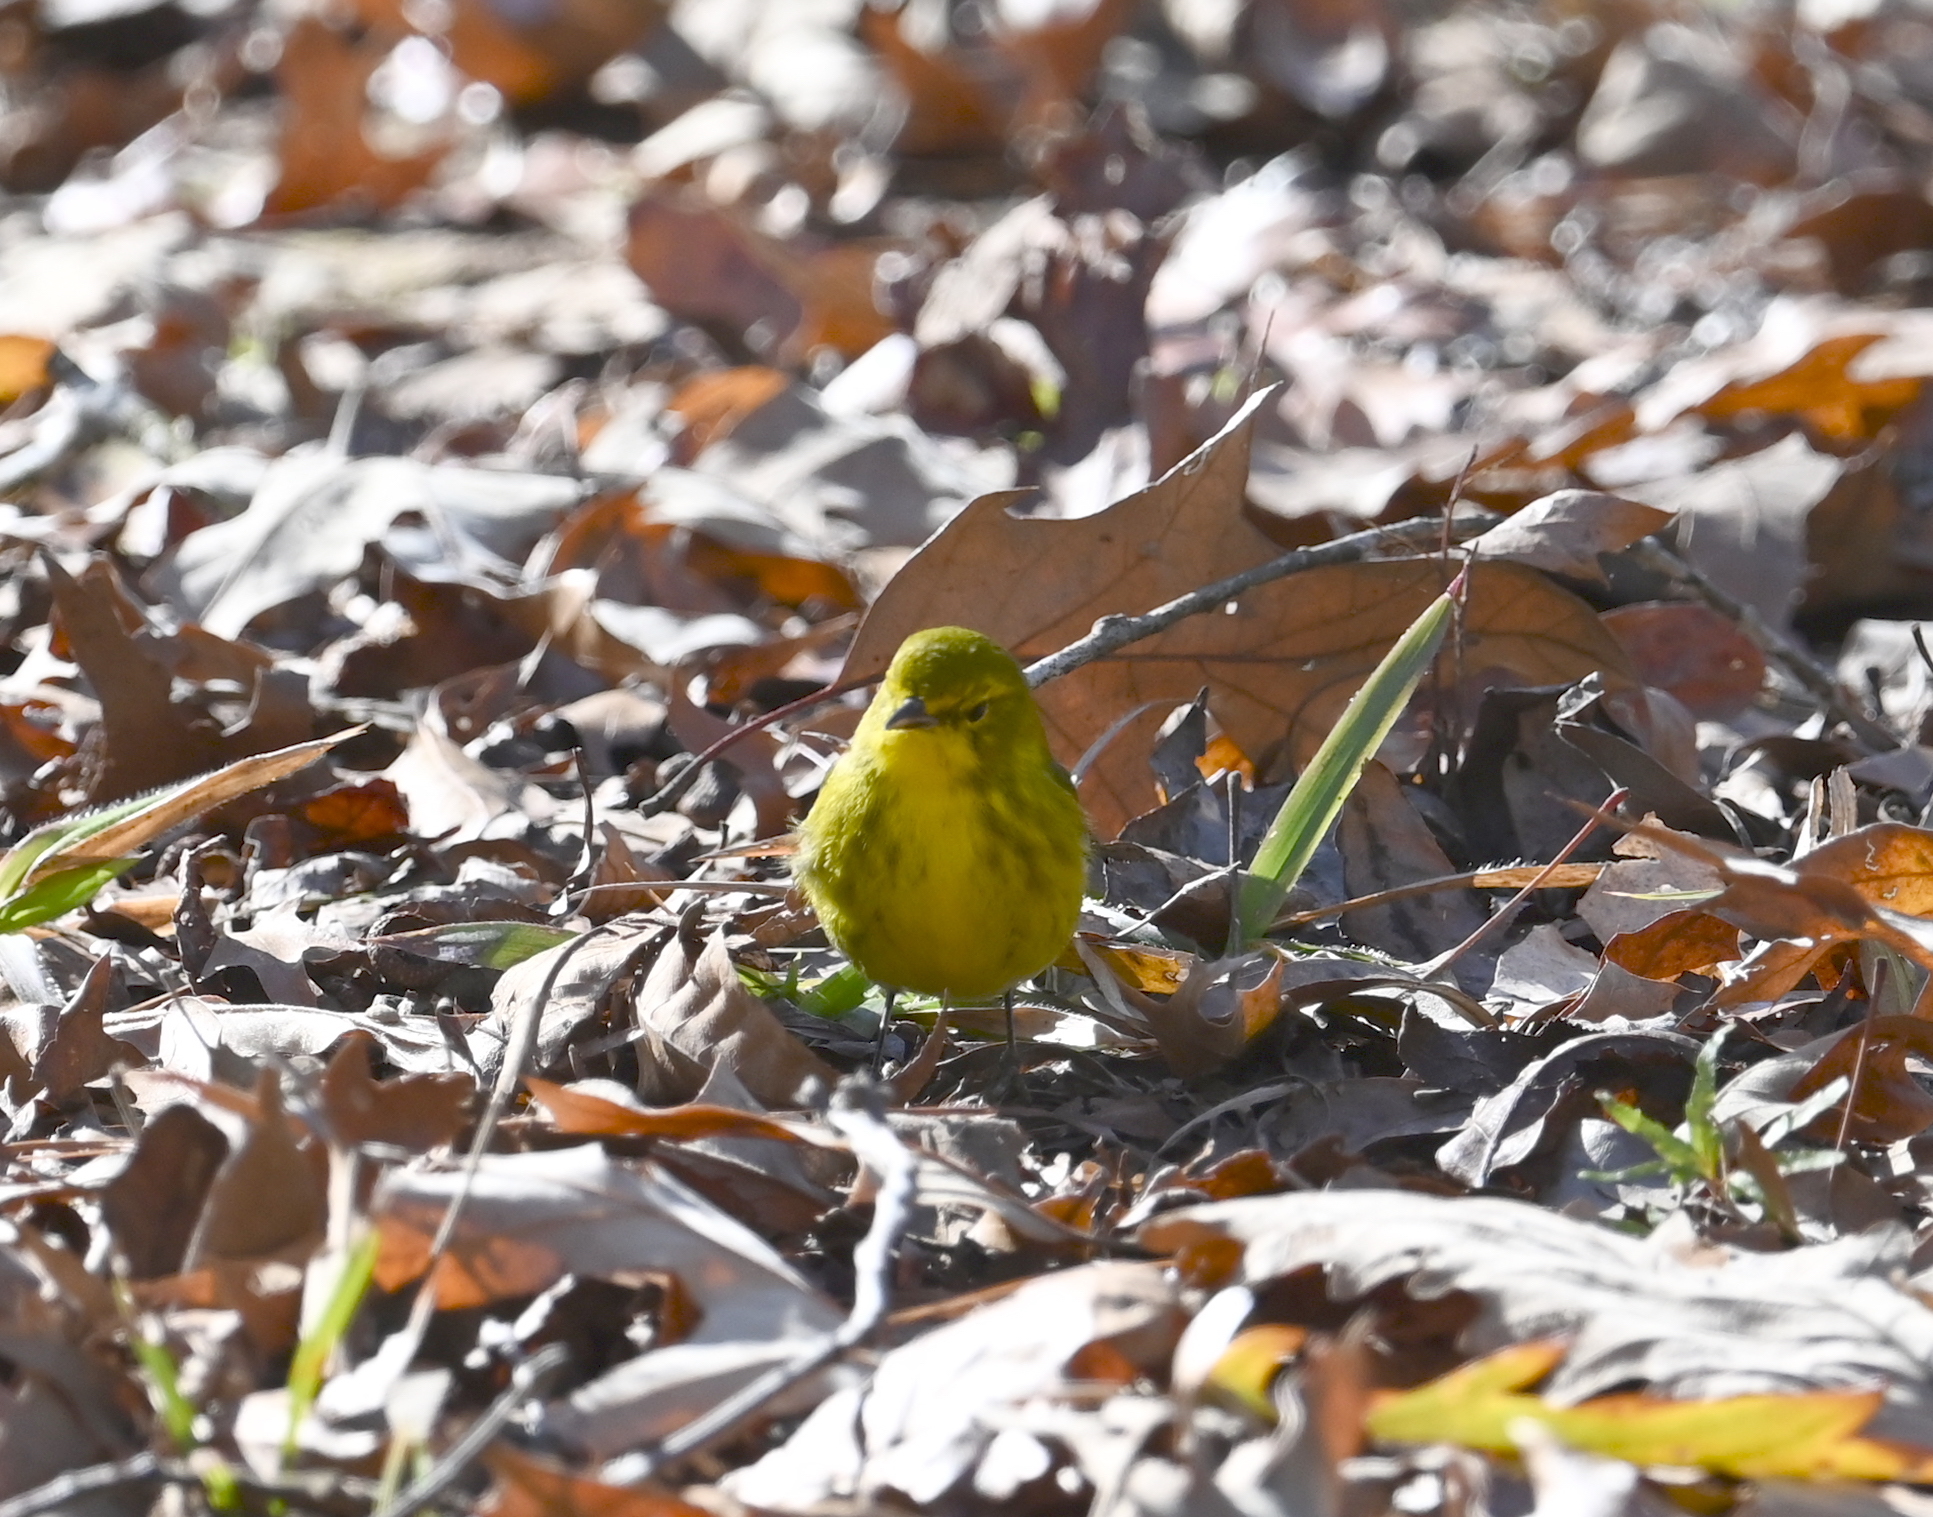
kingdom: Animalia
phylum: Chordata
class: Aves
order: Passeriformes
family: Parulidae
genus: Setophaga
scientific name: Setophaga pinus
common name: Pine warbler
